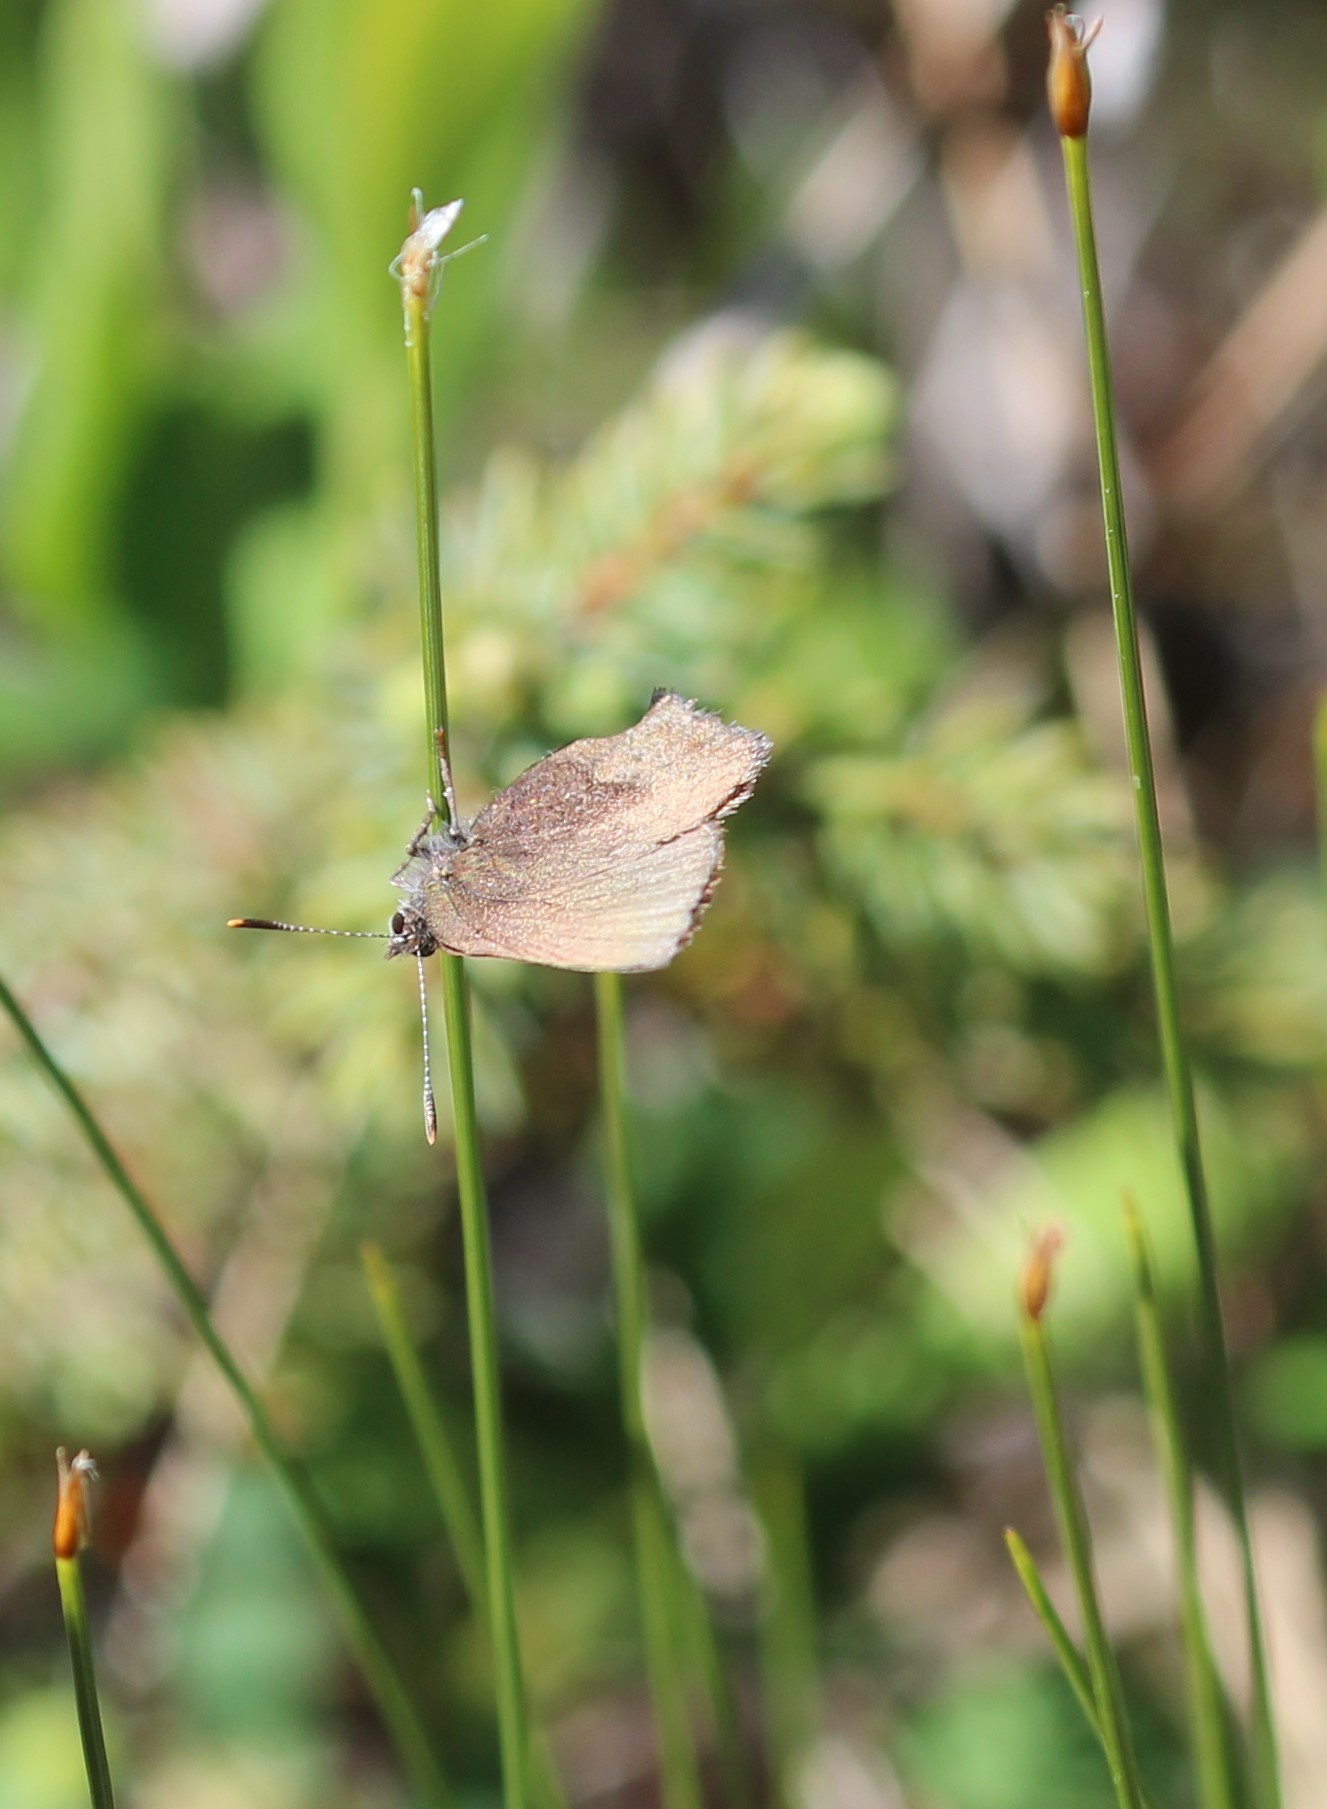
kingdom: Animalia
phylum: Arthropoda
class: Insecta
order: Lepidoptera
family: Lycaenidae
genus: Incisalia
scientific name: Incisalia irioides
